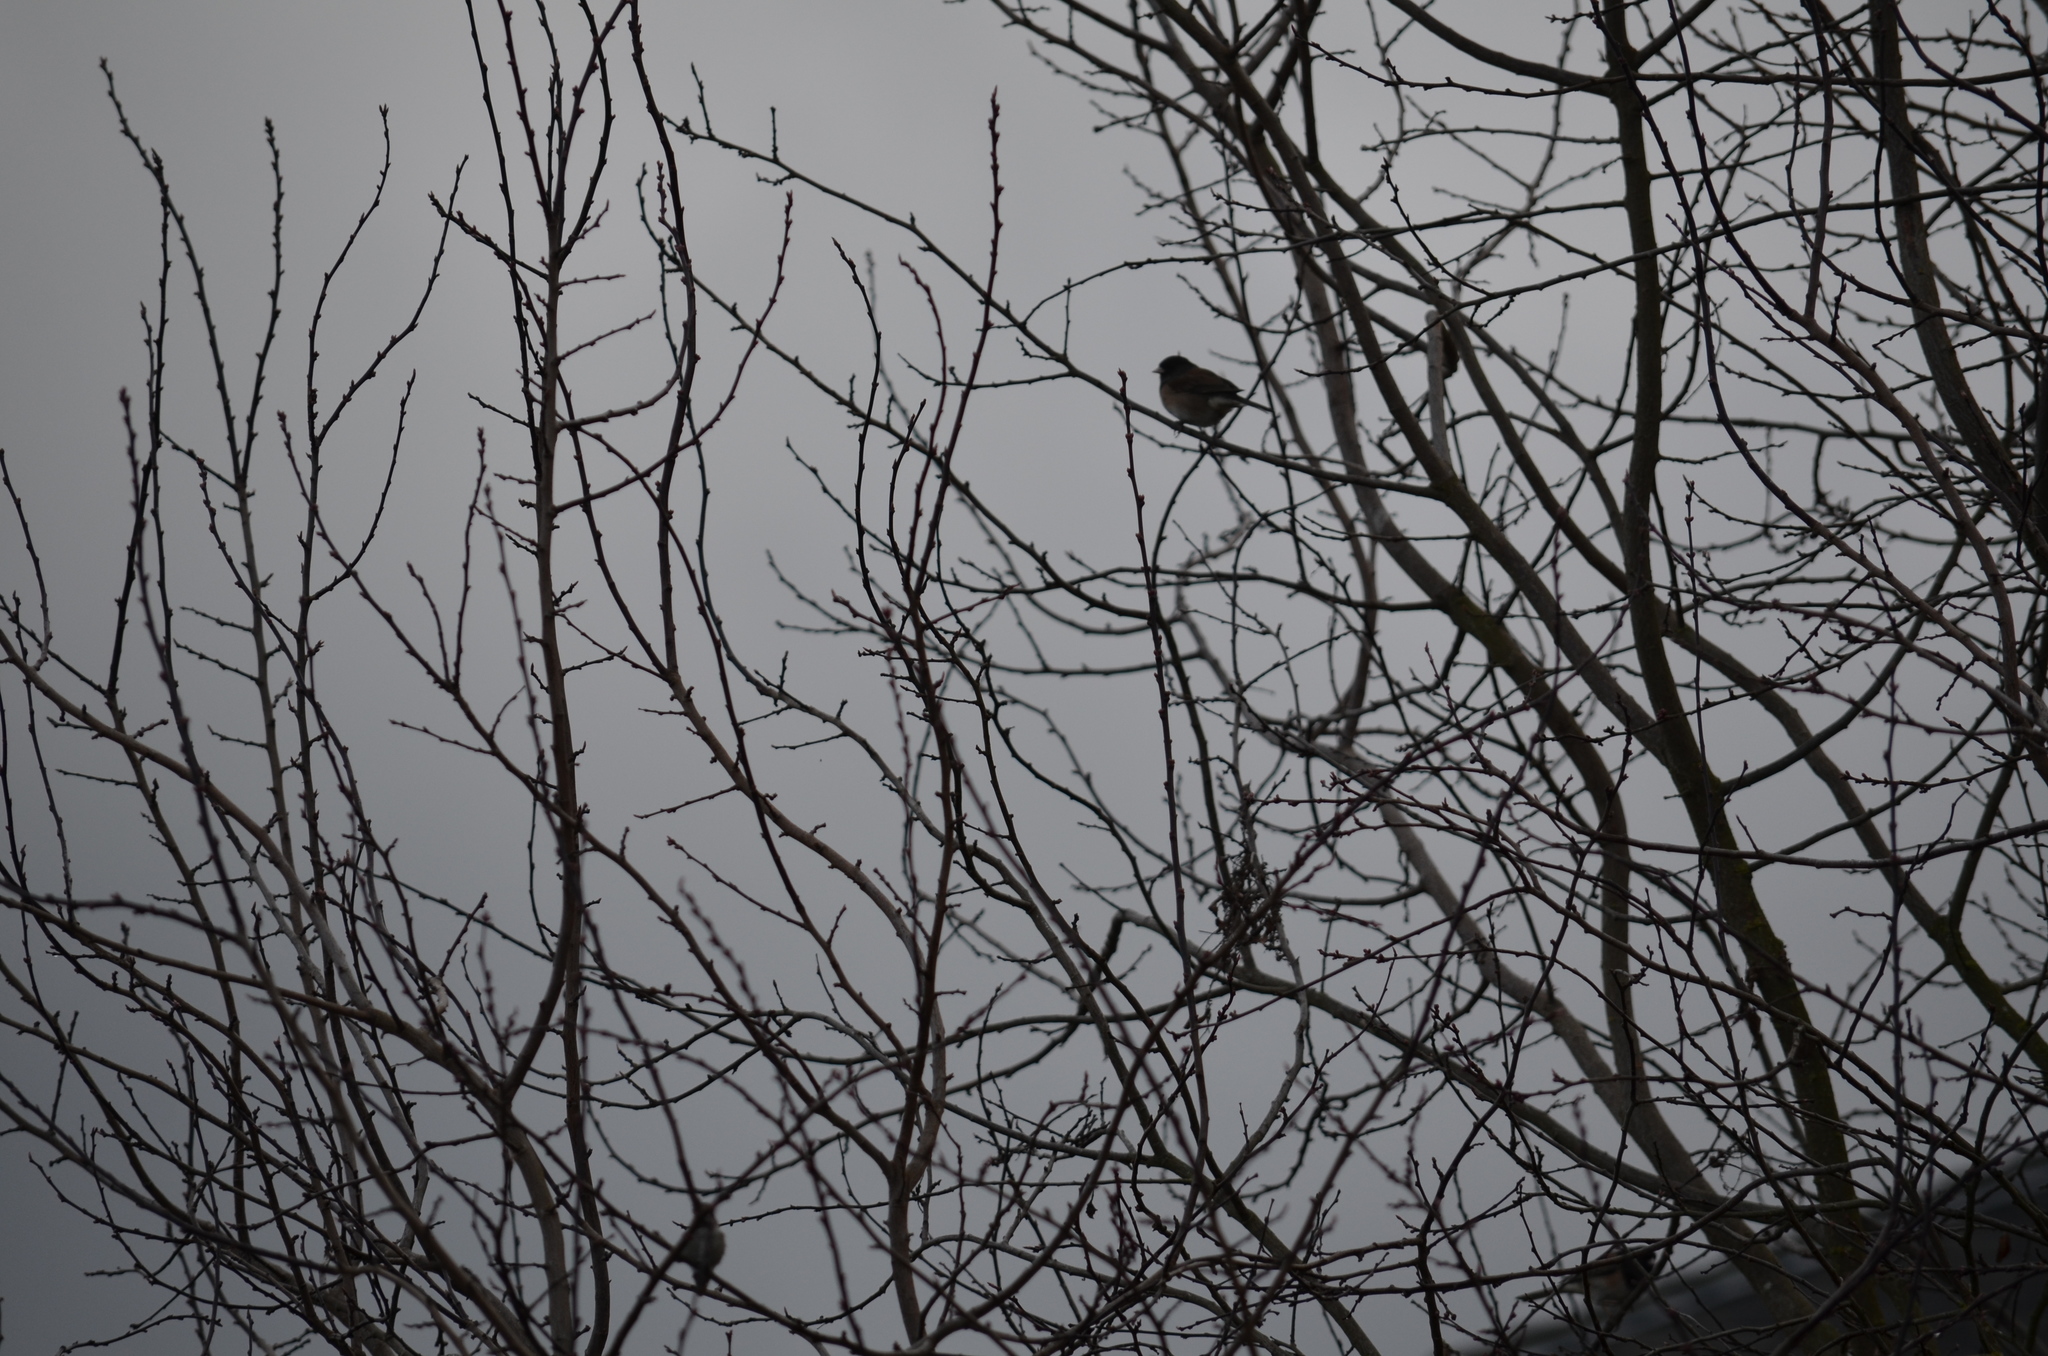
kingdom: Animalia
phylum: Chordata
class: Aves
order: Passeriformes
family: Passerellidae
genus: Junco
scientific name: Junco hyemalis
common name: Dark-eyed junco
